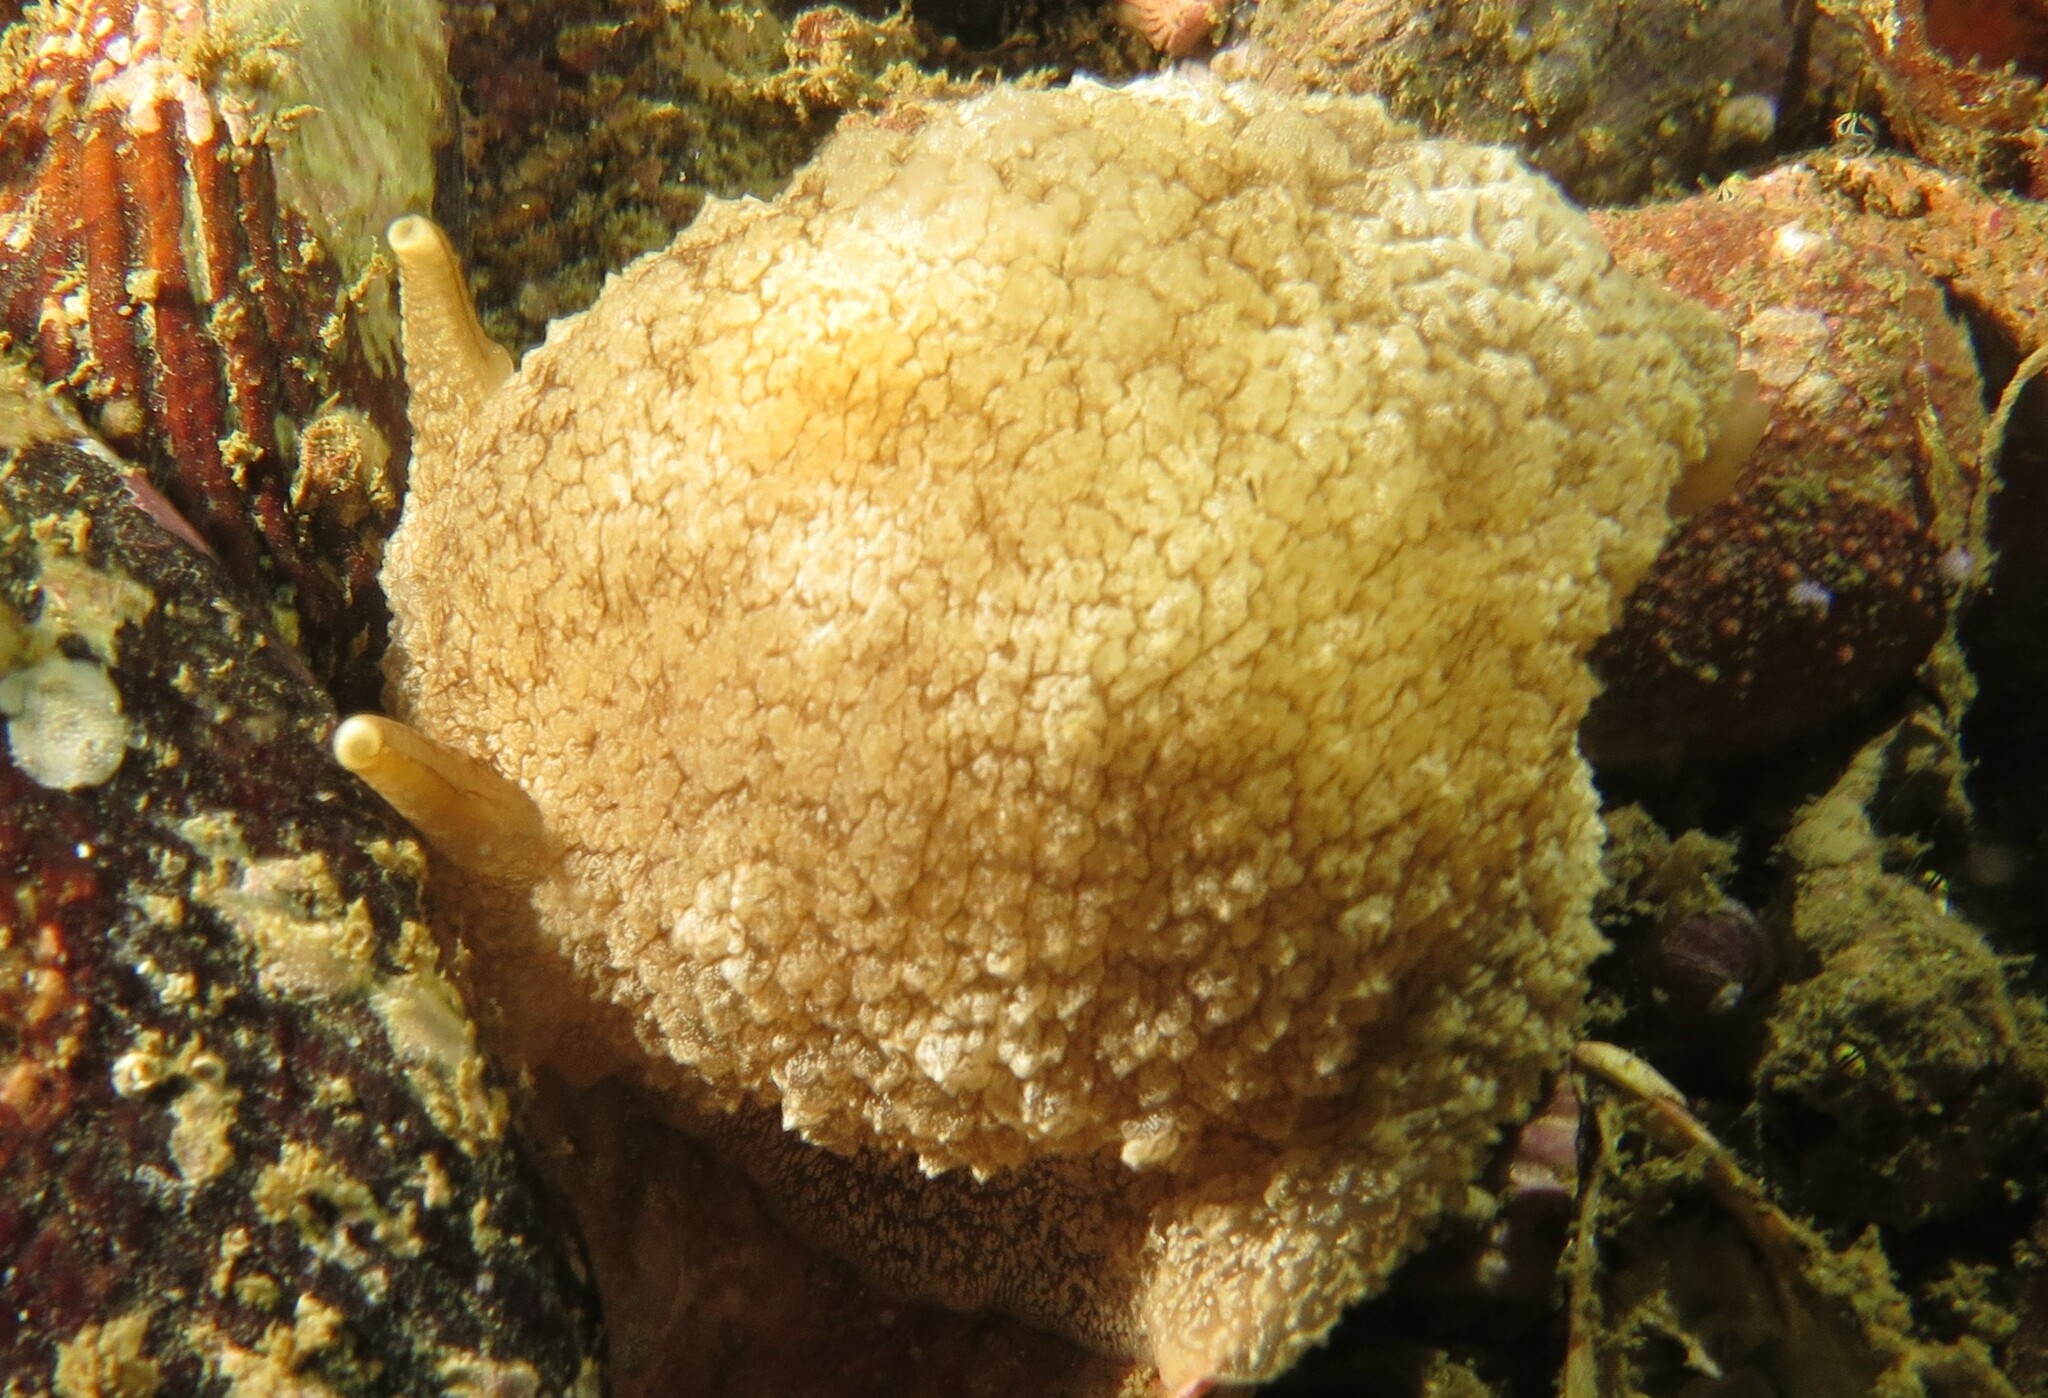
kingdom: Animalia
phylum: Mollusca
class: Gastropoda
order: Pleurobranchida
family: Pleurobranchaeidae
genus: Pleurobranchaea
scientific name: Pleurobranchaea bubala
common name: Warty pleurobranch
